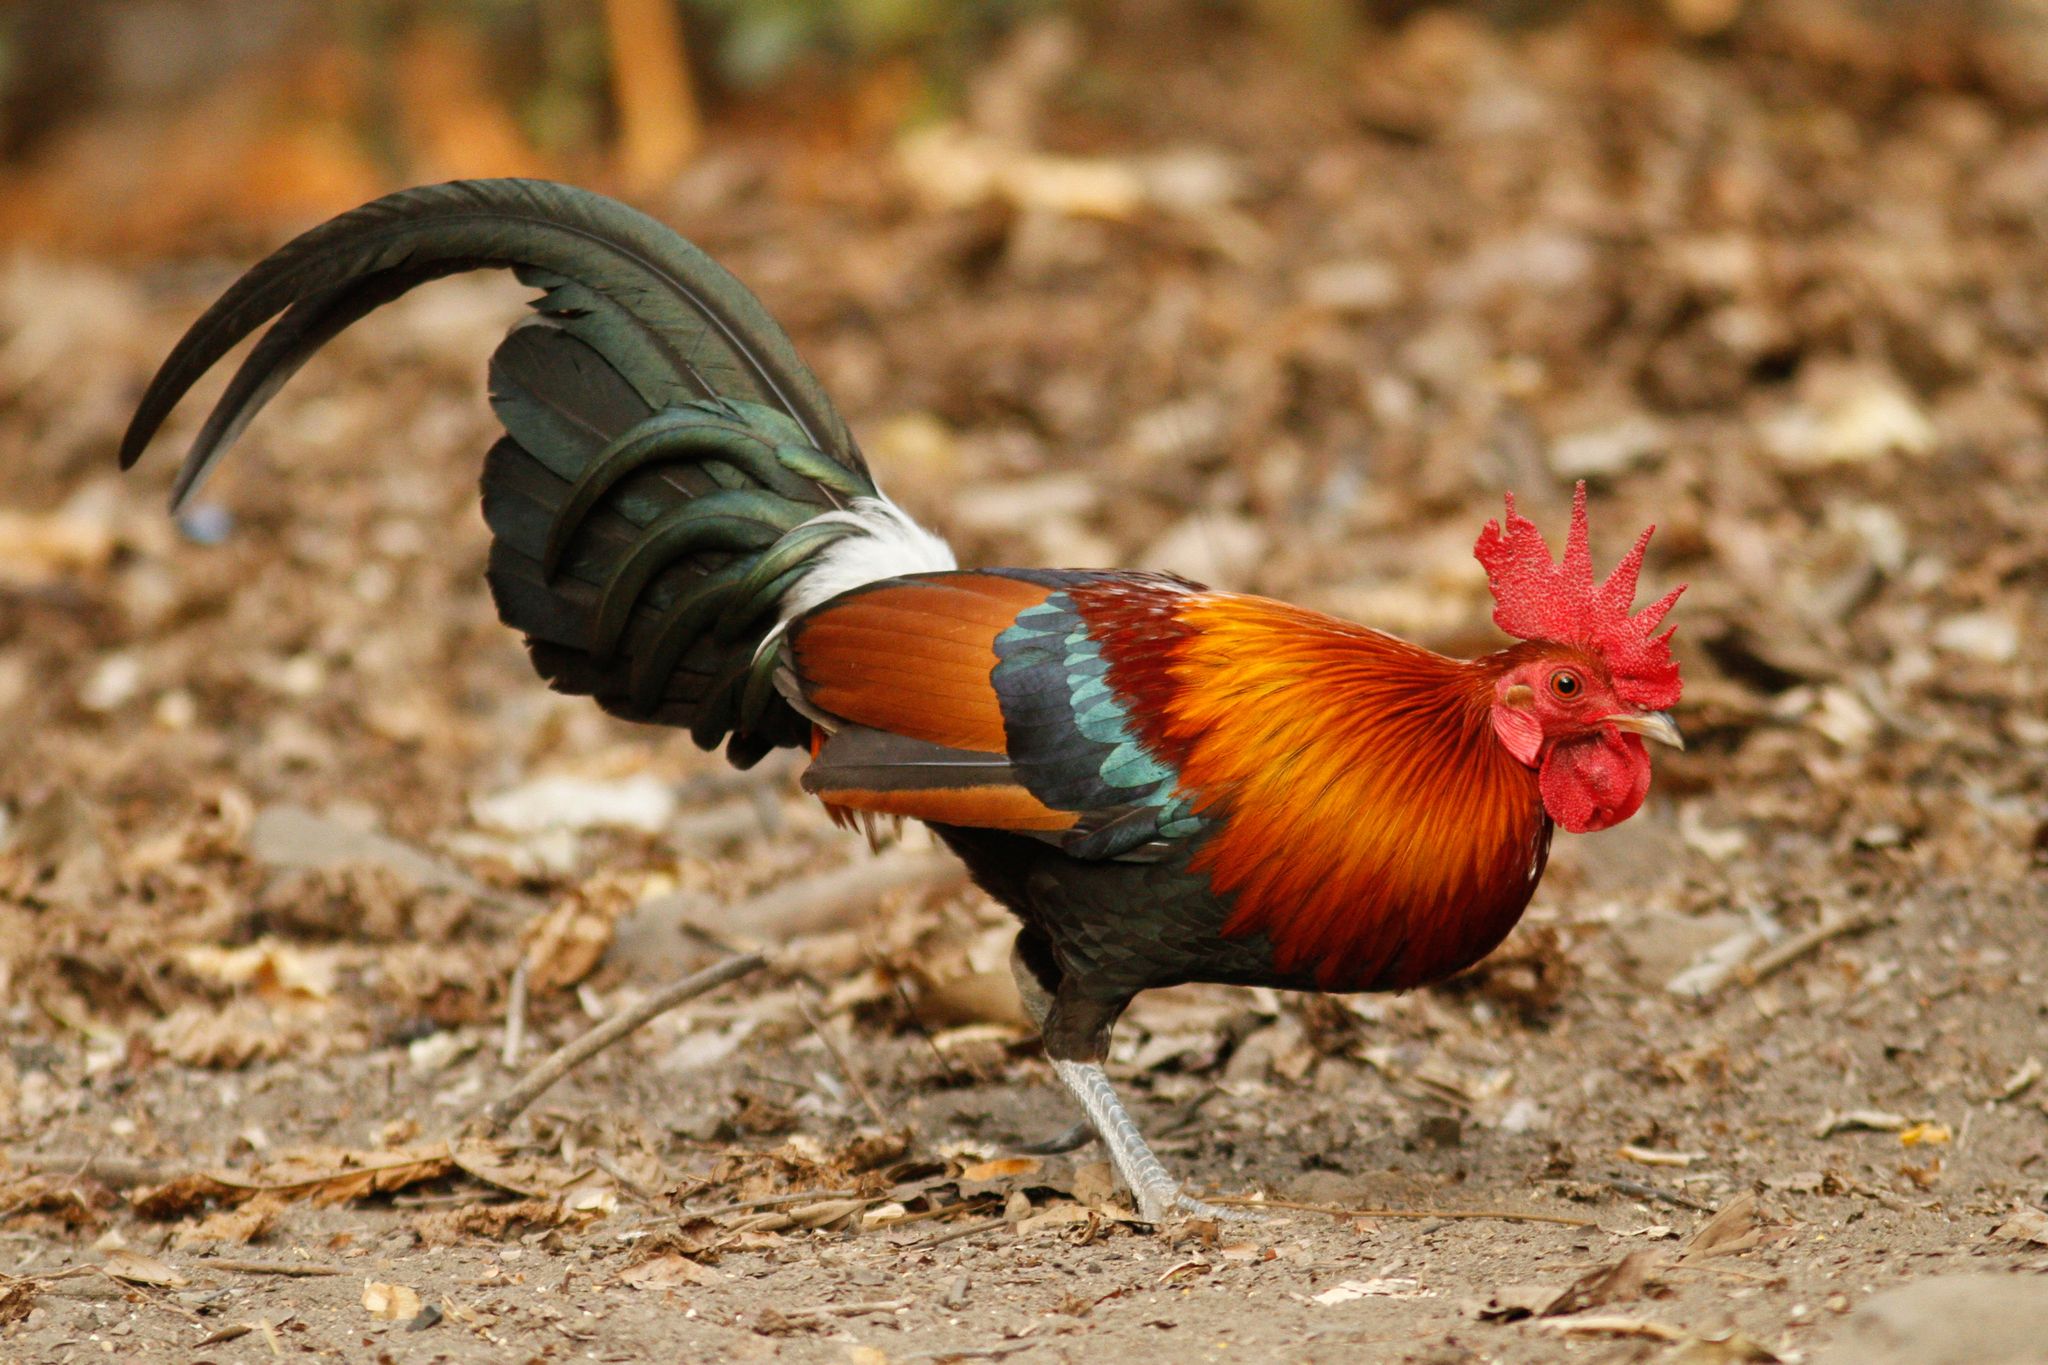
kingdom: Animalia
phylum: Chordata
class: Aves
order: Galliformes
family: Phasianidae
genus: Gallus
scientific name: Gallus gallus
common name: Red junglefowl
